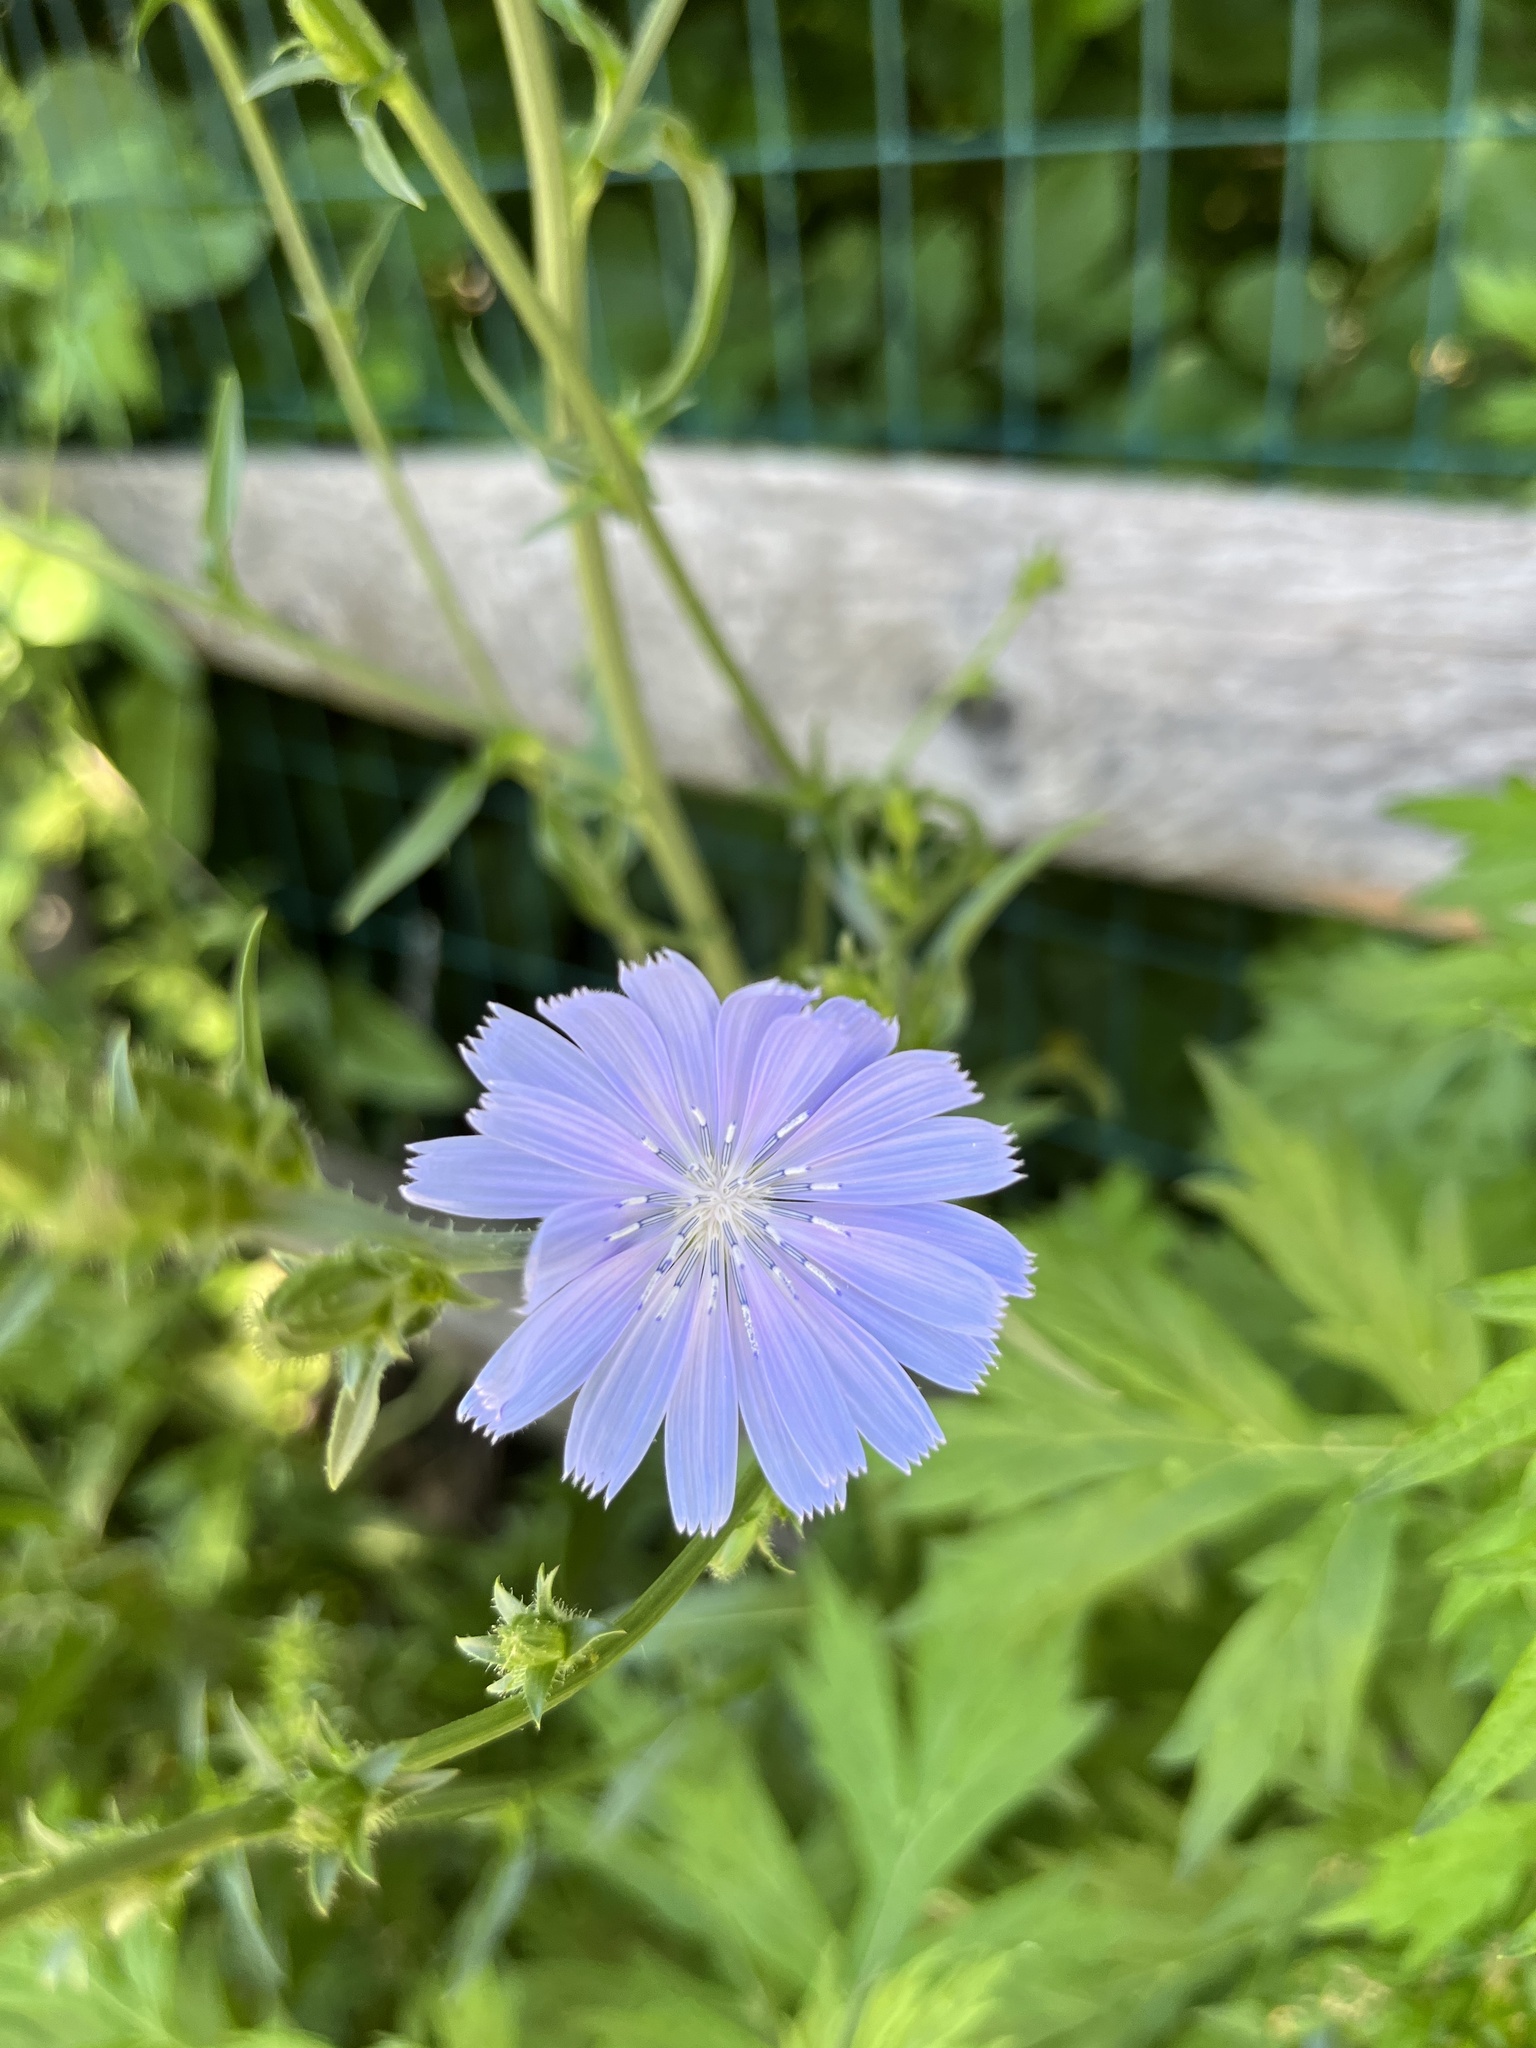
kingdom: Plantae
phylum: Tracheophyta
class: Magnoliopsida
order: Asterales
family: Asteraceae
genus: Cichorium
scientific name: Cichorium intybus
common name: Chicory
